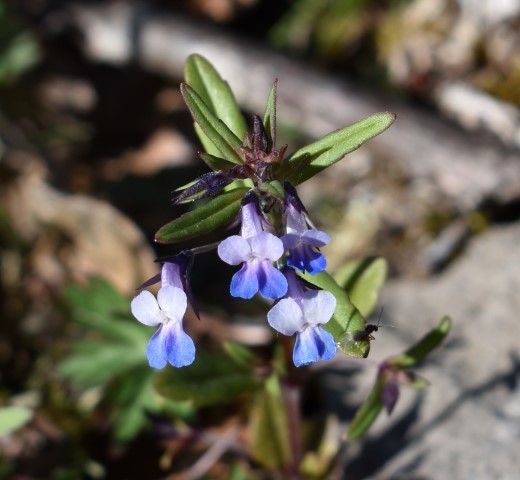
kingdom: Plantae
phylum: Tracheophyta
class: Magnoliopsida
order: Lamiales
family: Plantaginaceae
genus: Collinsia
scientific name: Collinsia parviflora
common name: Blue-lips
